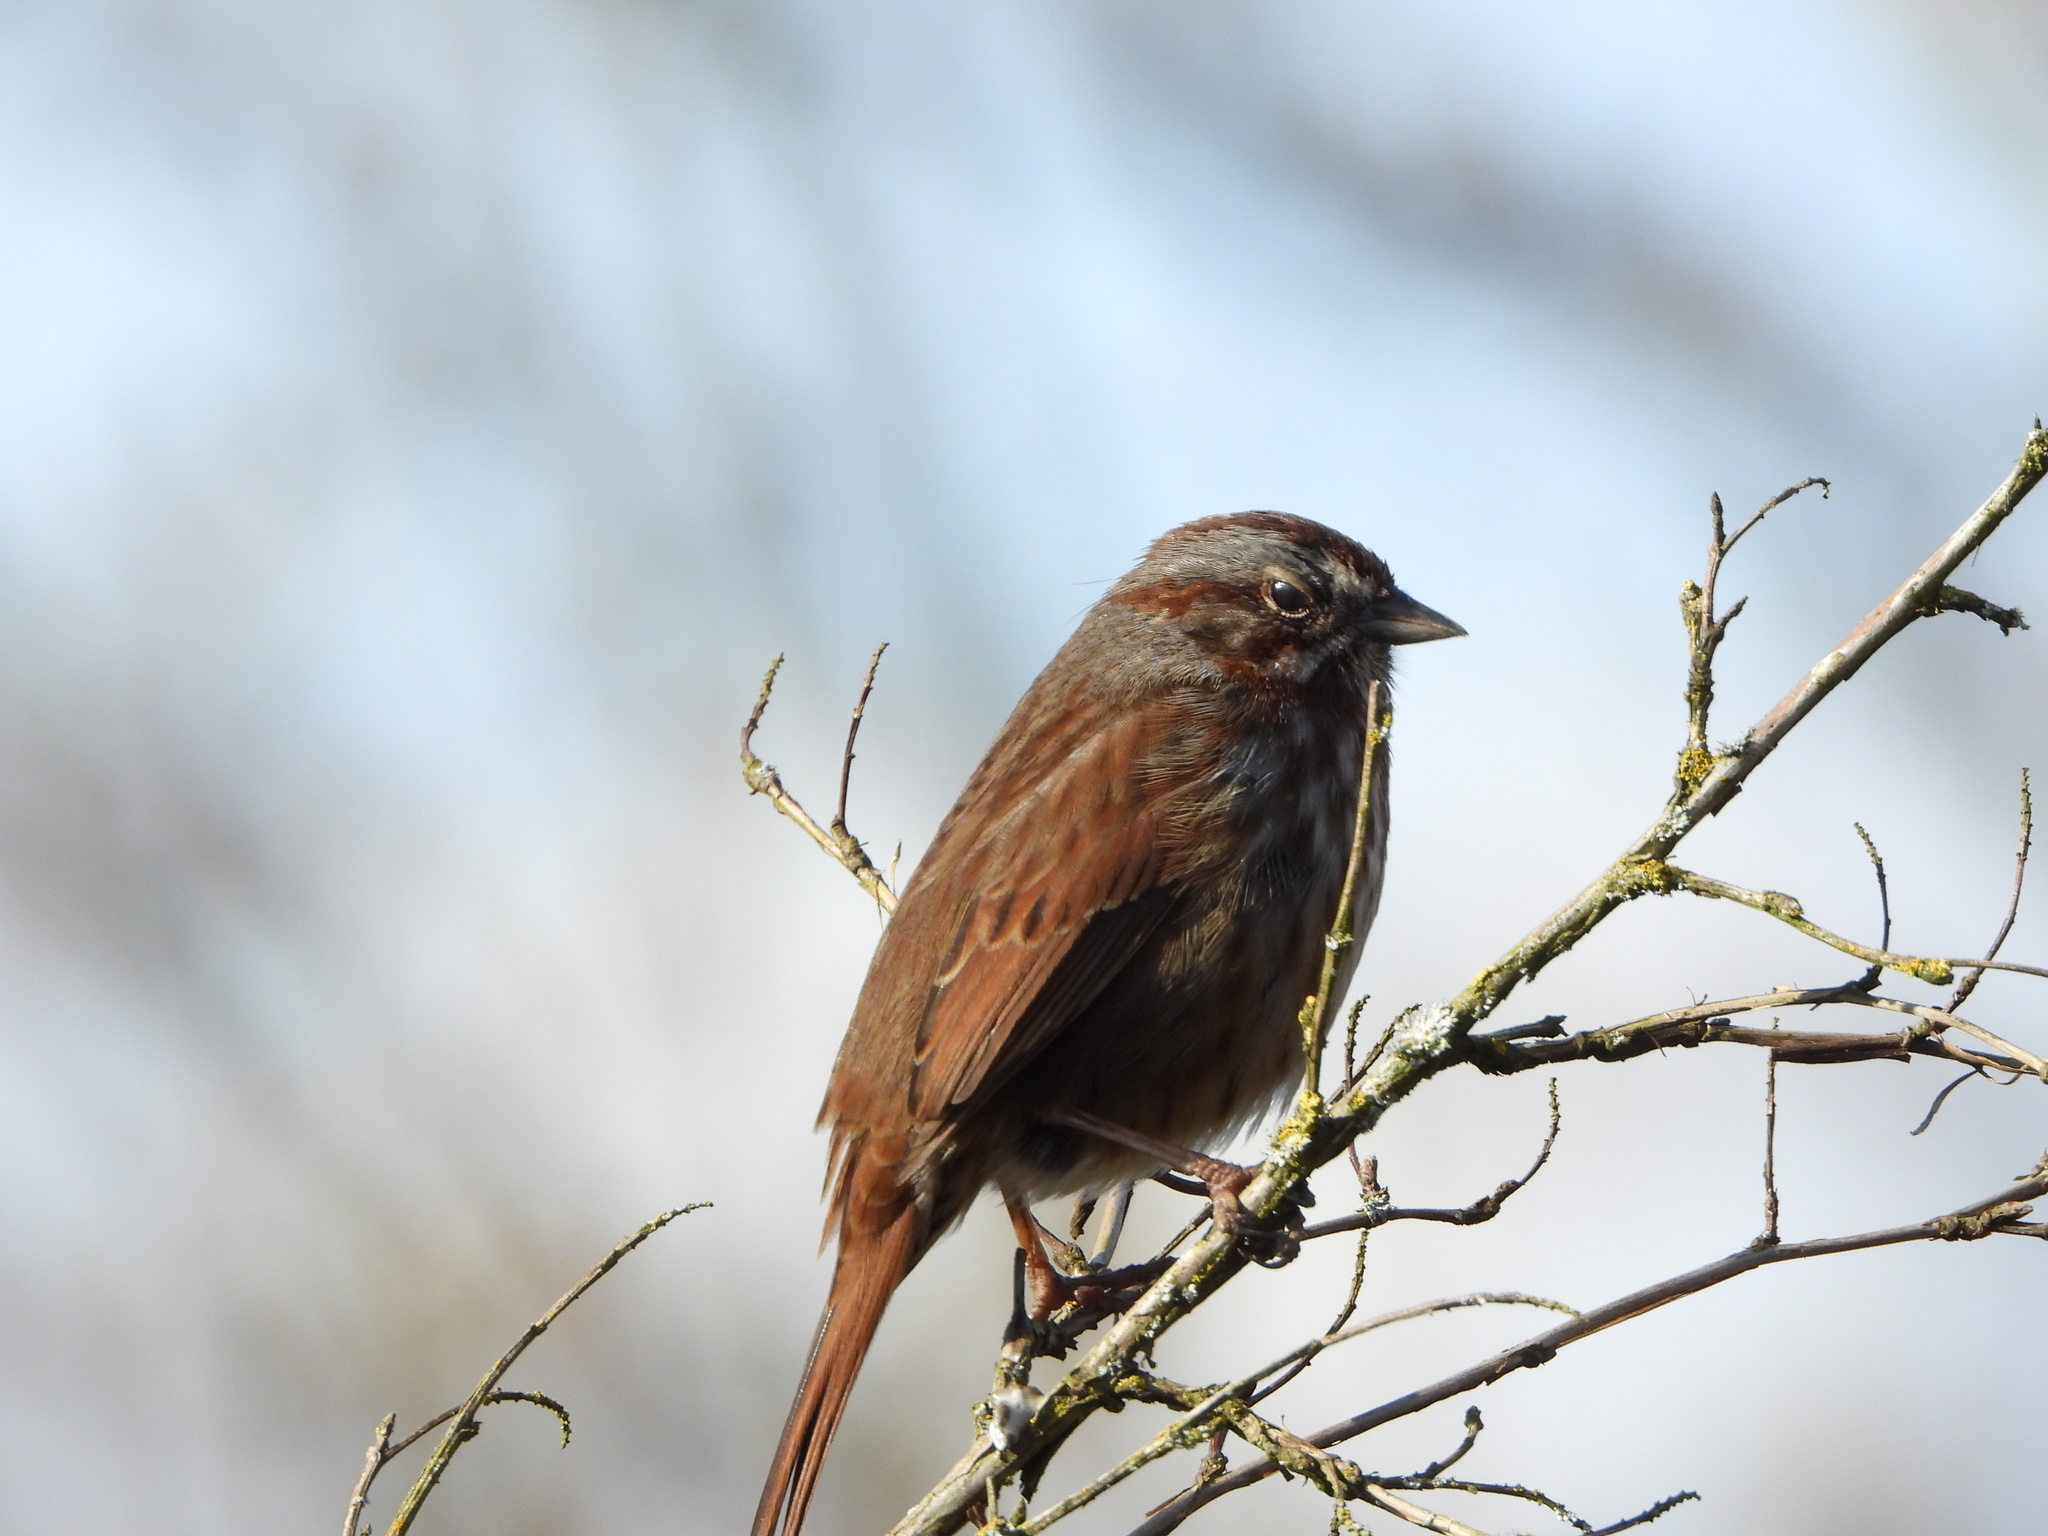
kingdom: Animalia
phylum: Chordata
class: Aves
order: Passeriformes
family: Passerellidae
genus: Melospiza
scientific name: Melospiza melodia
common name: Song sparrow
